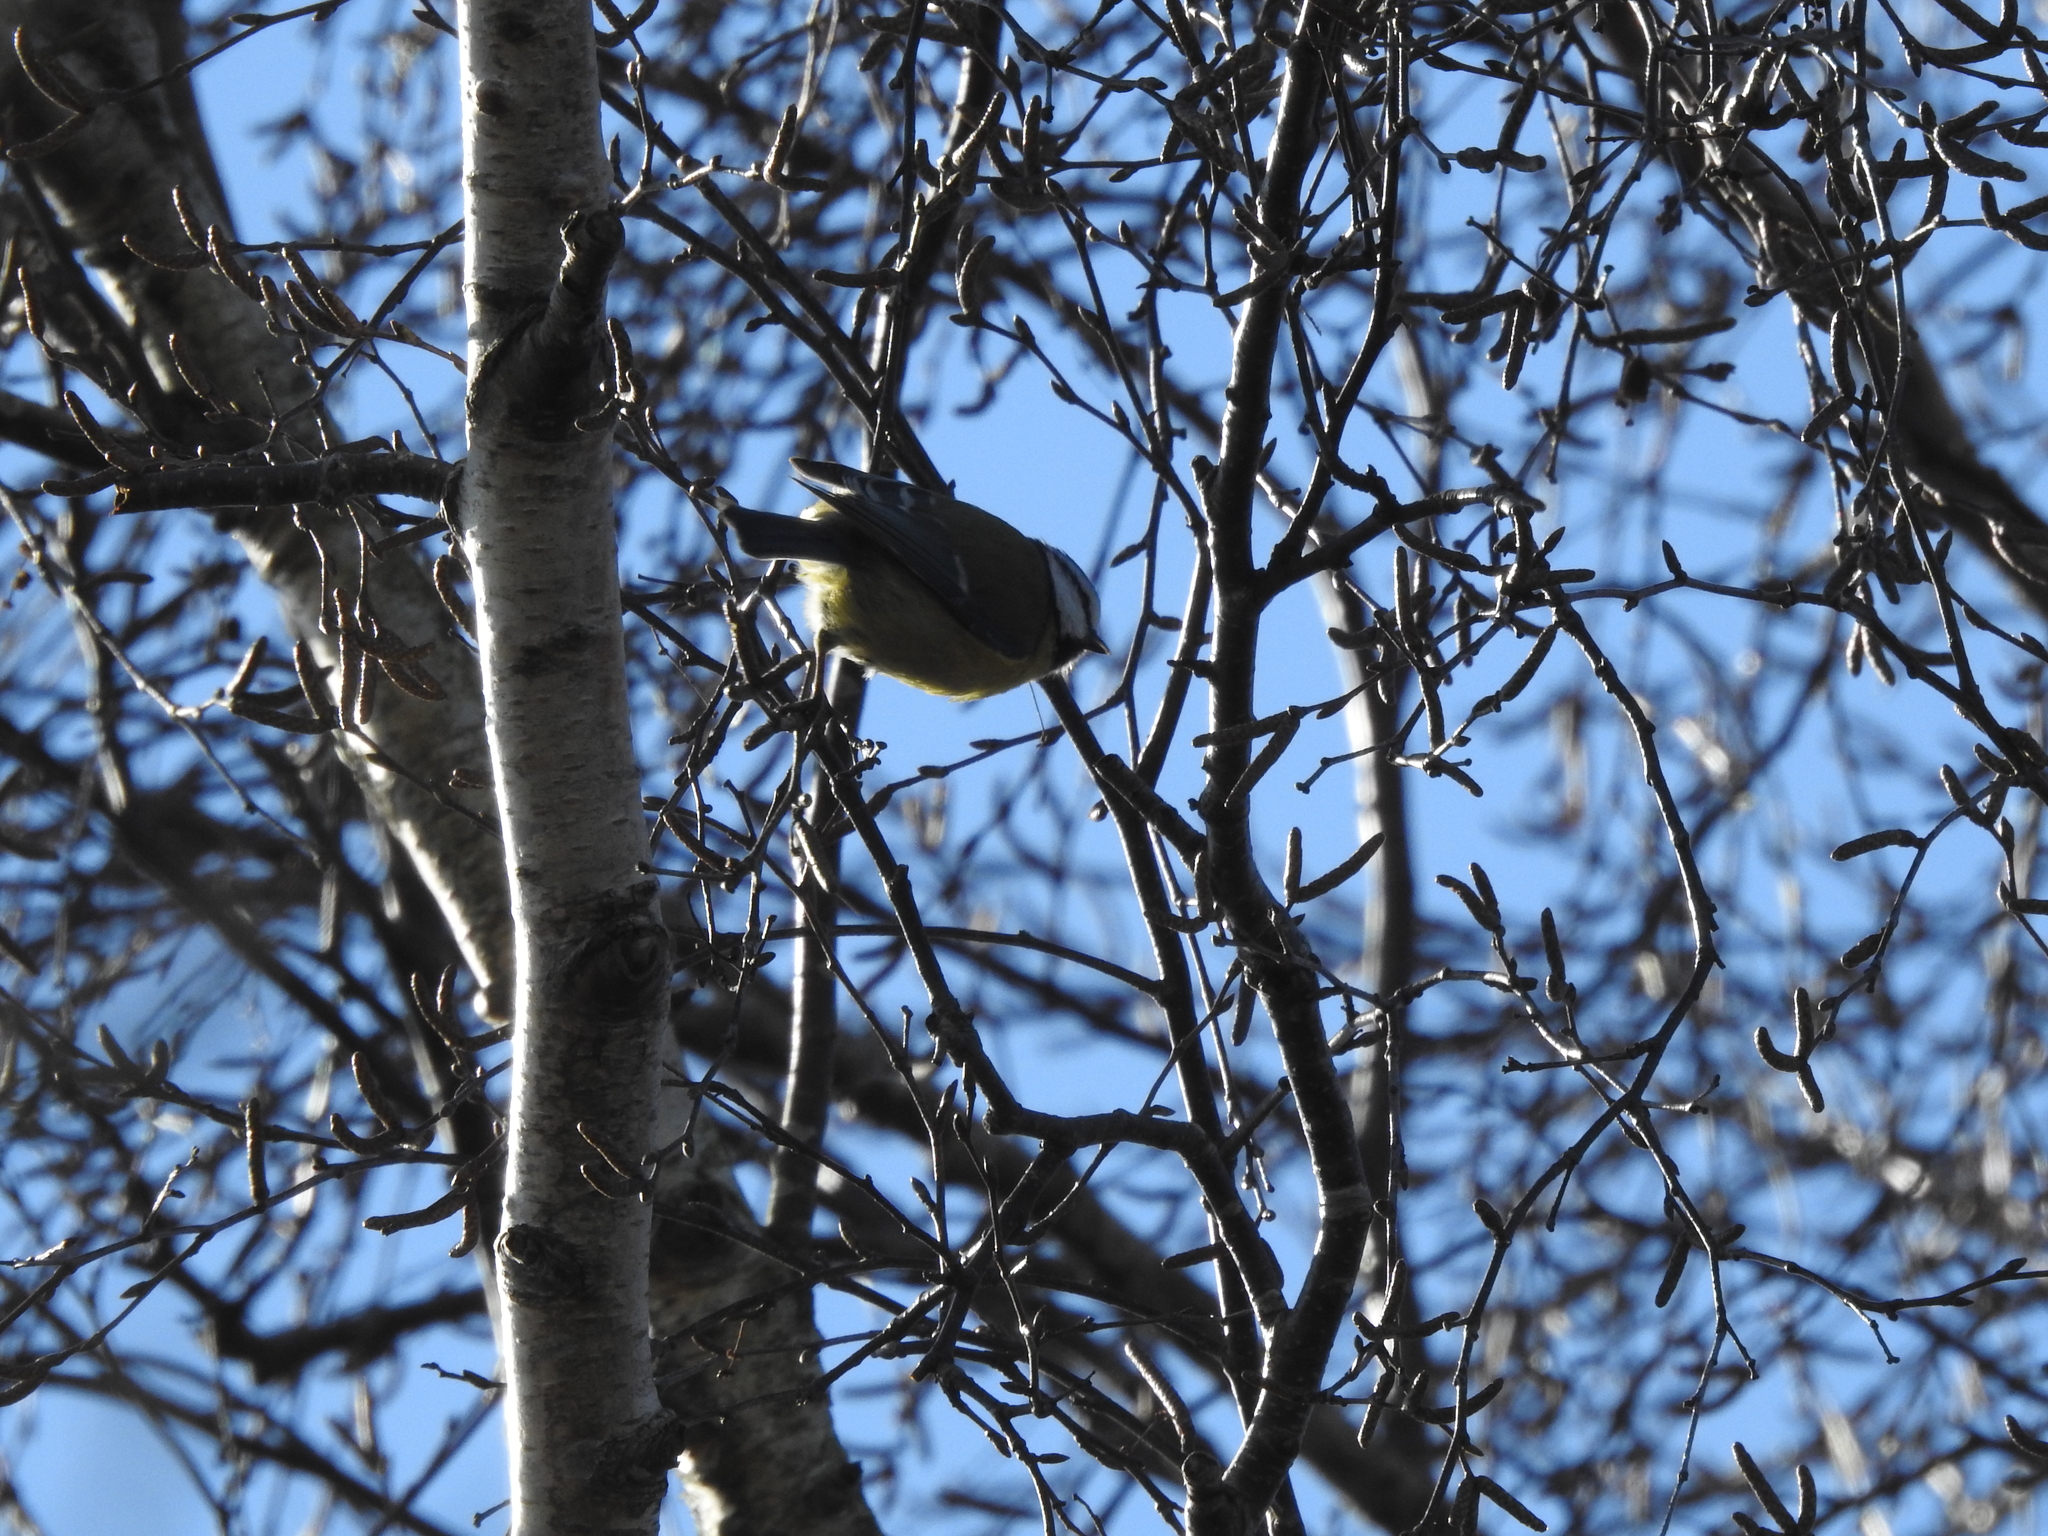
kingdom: Animalia
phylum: Chordata
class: Aves
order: Passeriformes
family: Paridae
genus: Cyanistes
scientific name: Cyanistes caeruleus
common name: Eurasian blue tit
